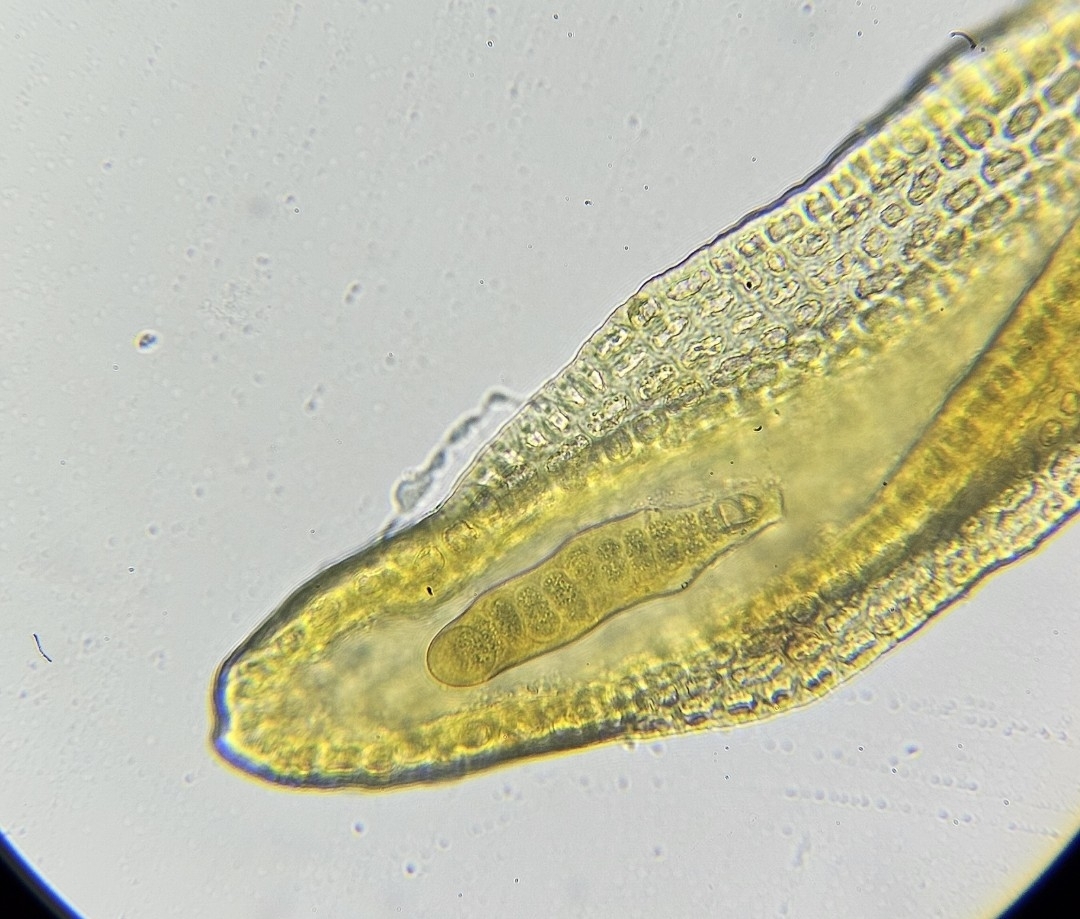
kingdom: Plantae
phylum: Bryophyta
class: Bryopsida
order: Grimmiales
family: Grimmiaceae
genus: Bucklandiella
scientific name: Bucklandiella obtusa
